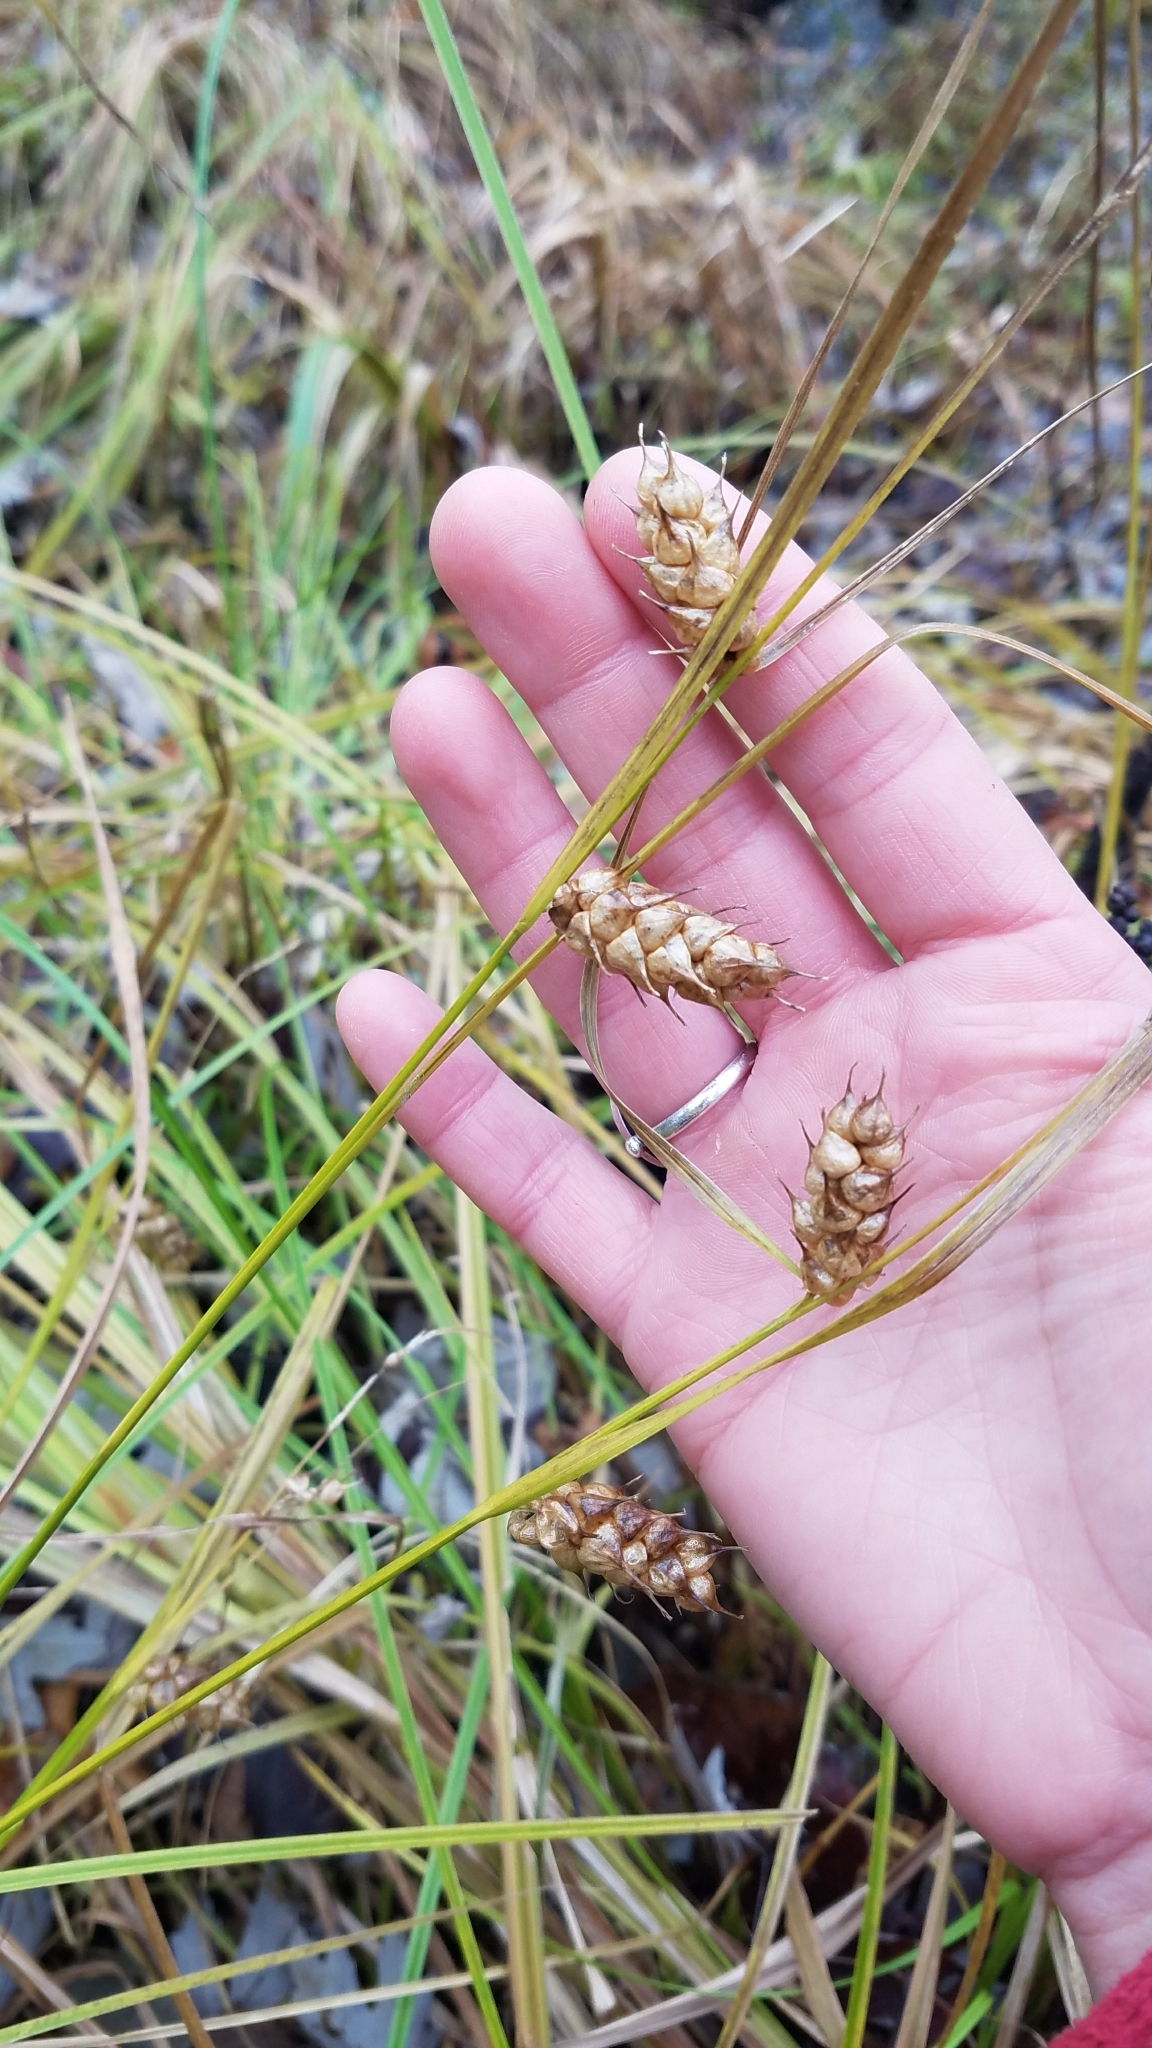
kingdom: Plantae
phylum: Tracheophyta
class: Liliopsida
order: Poales
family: Cyperaceae
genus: Carex
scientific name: Carex tuckermanii
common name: Tuckerman's sedge
